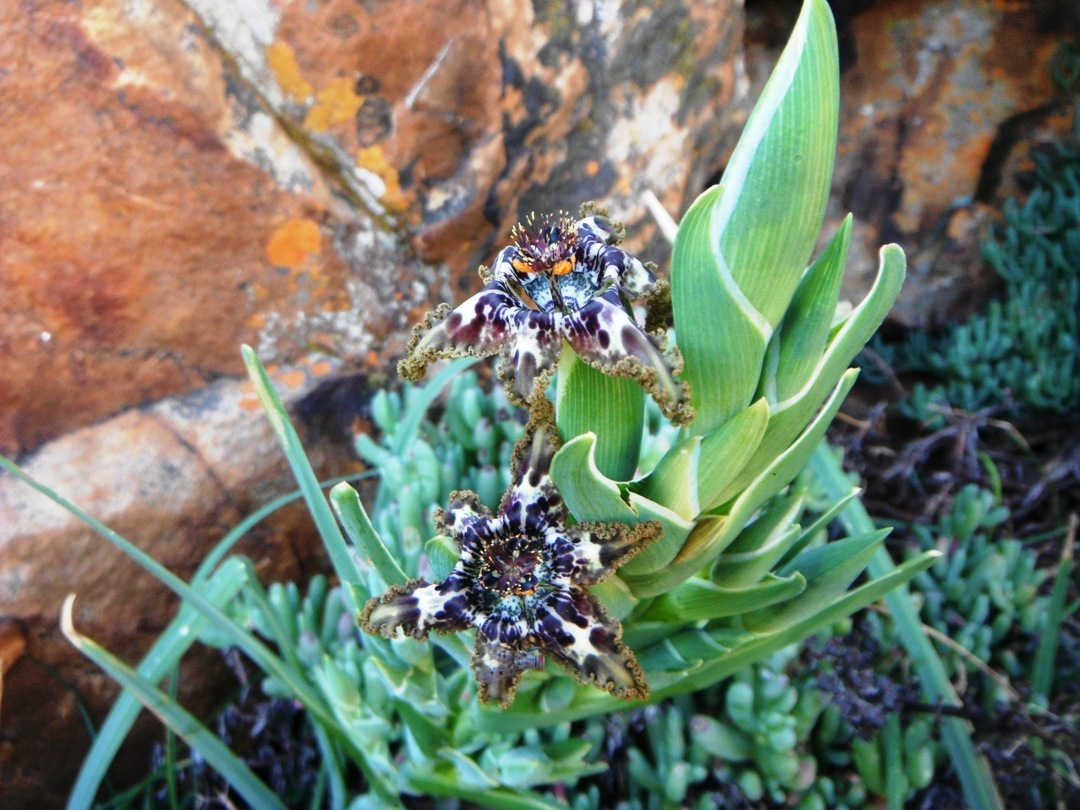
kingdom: Plantae
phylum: Tracheophyta
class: Liliopsida
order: Asparagales
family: Iridaceae
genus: Ferraria
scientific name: Ferraria crispa
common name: Black-flag
